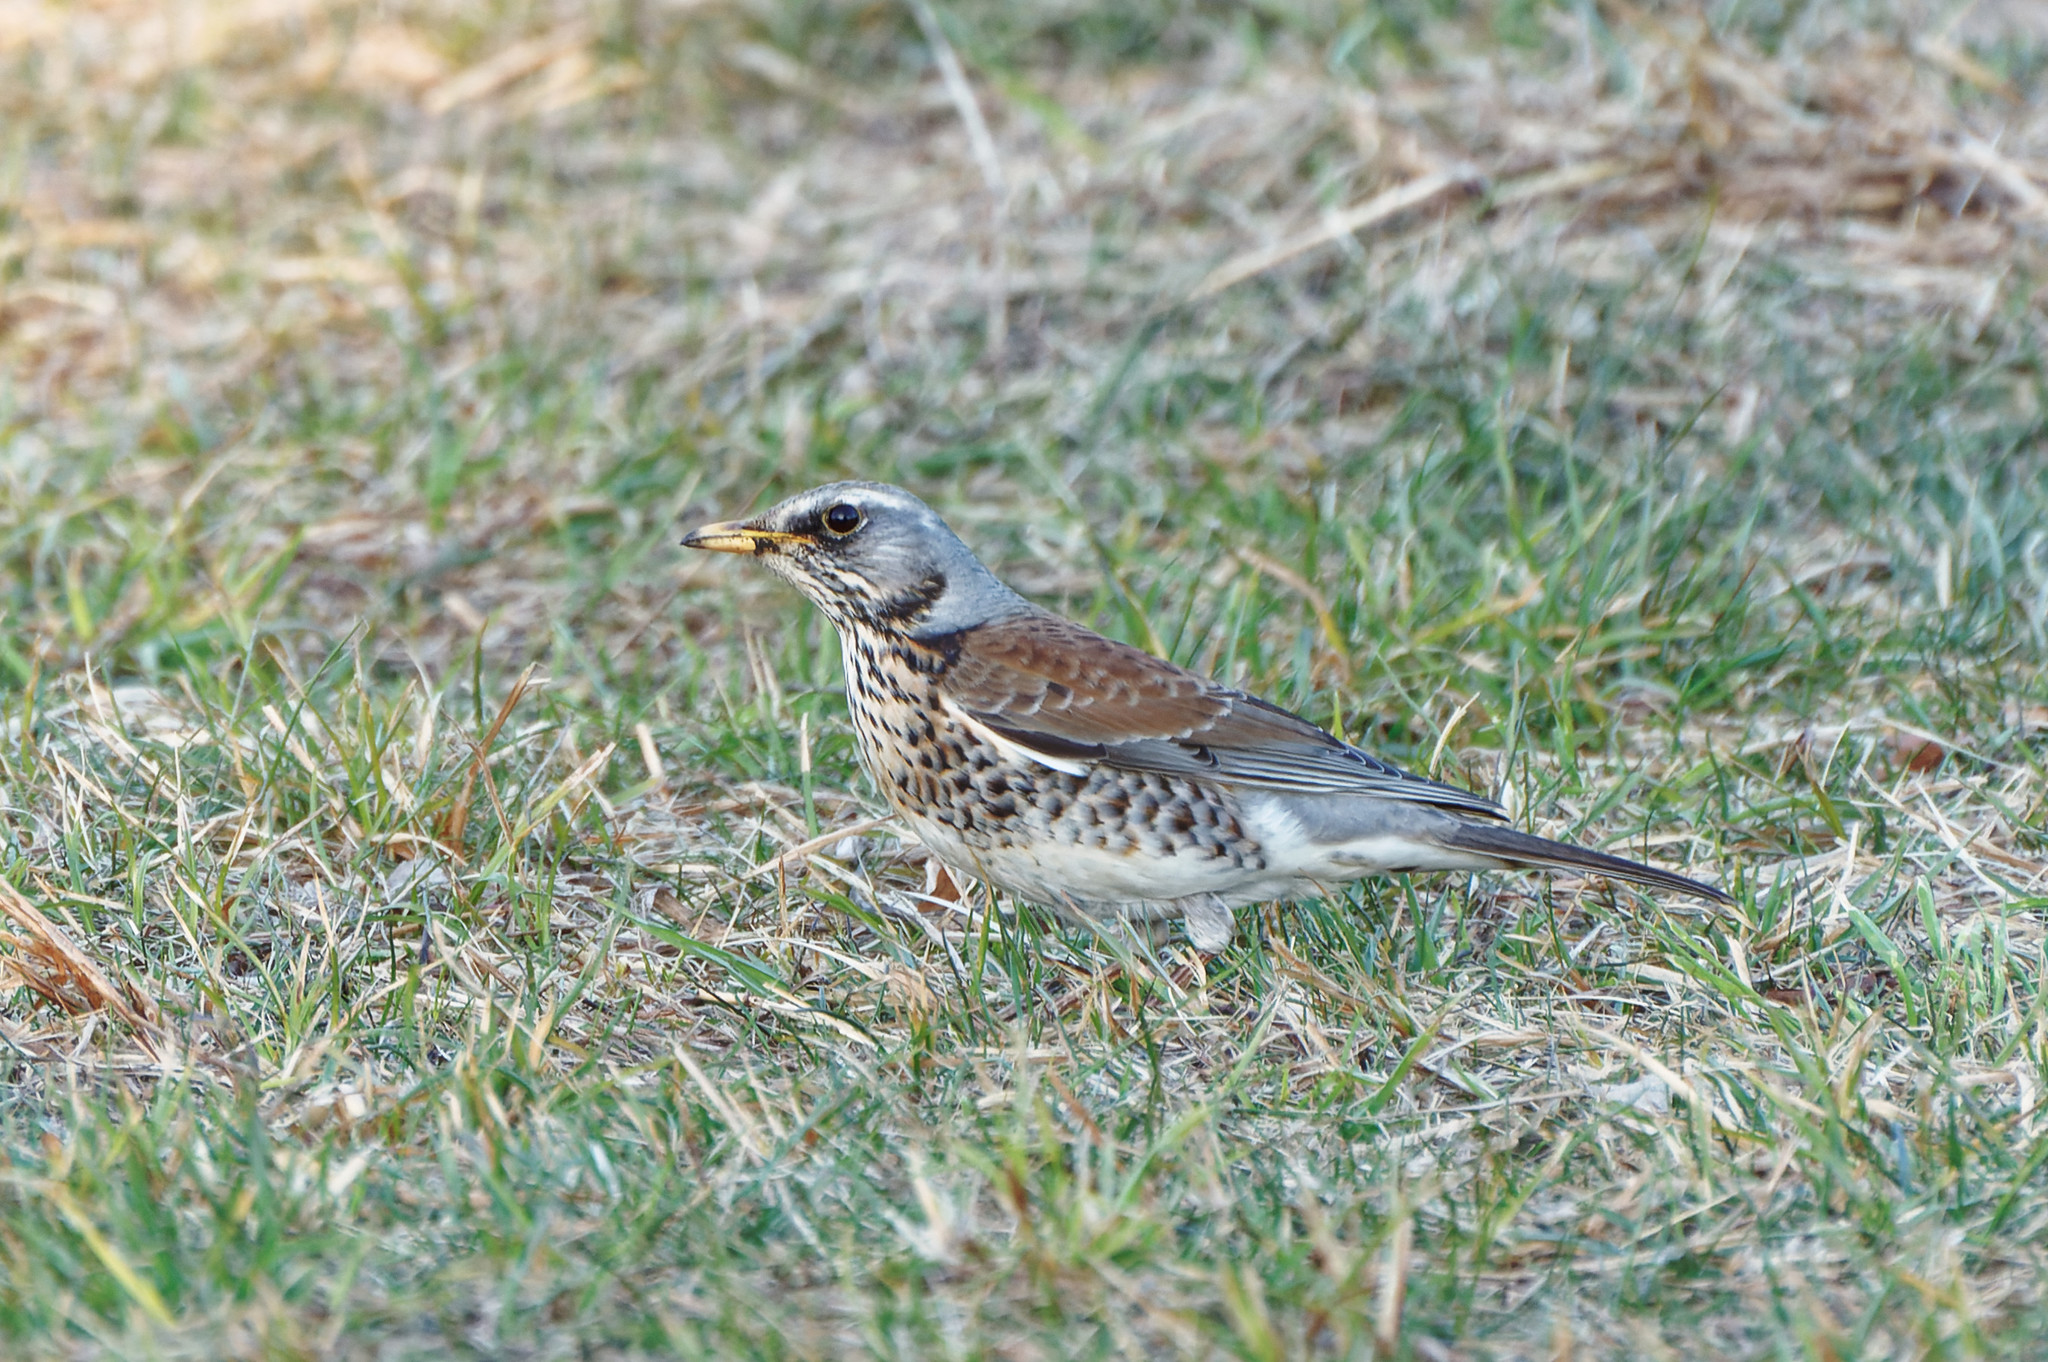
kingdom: Animalia
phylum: Chordata
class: Aves
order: Passeriformes
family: Turdidae
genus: Turdus
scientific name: Turdus pilaris
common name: Fieldfare
